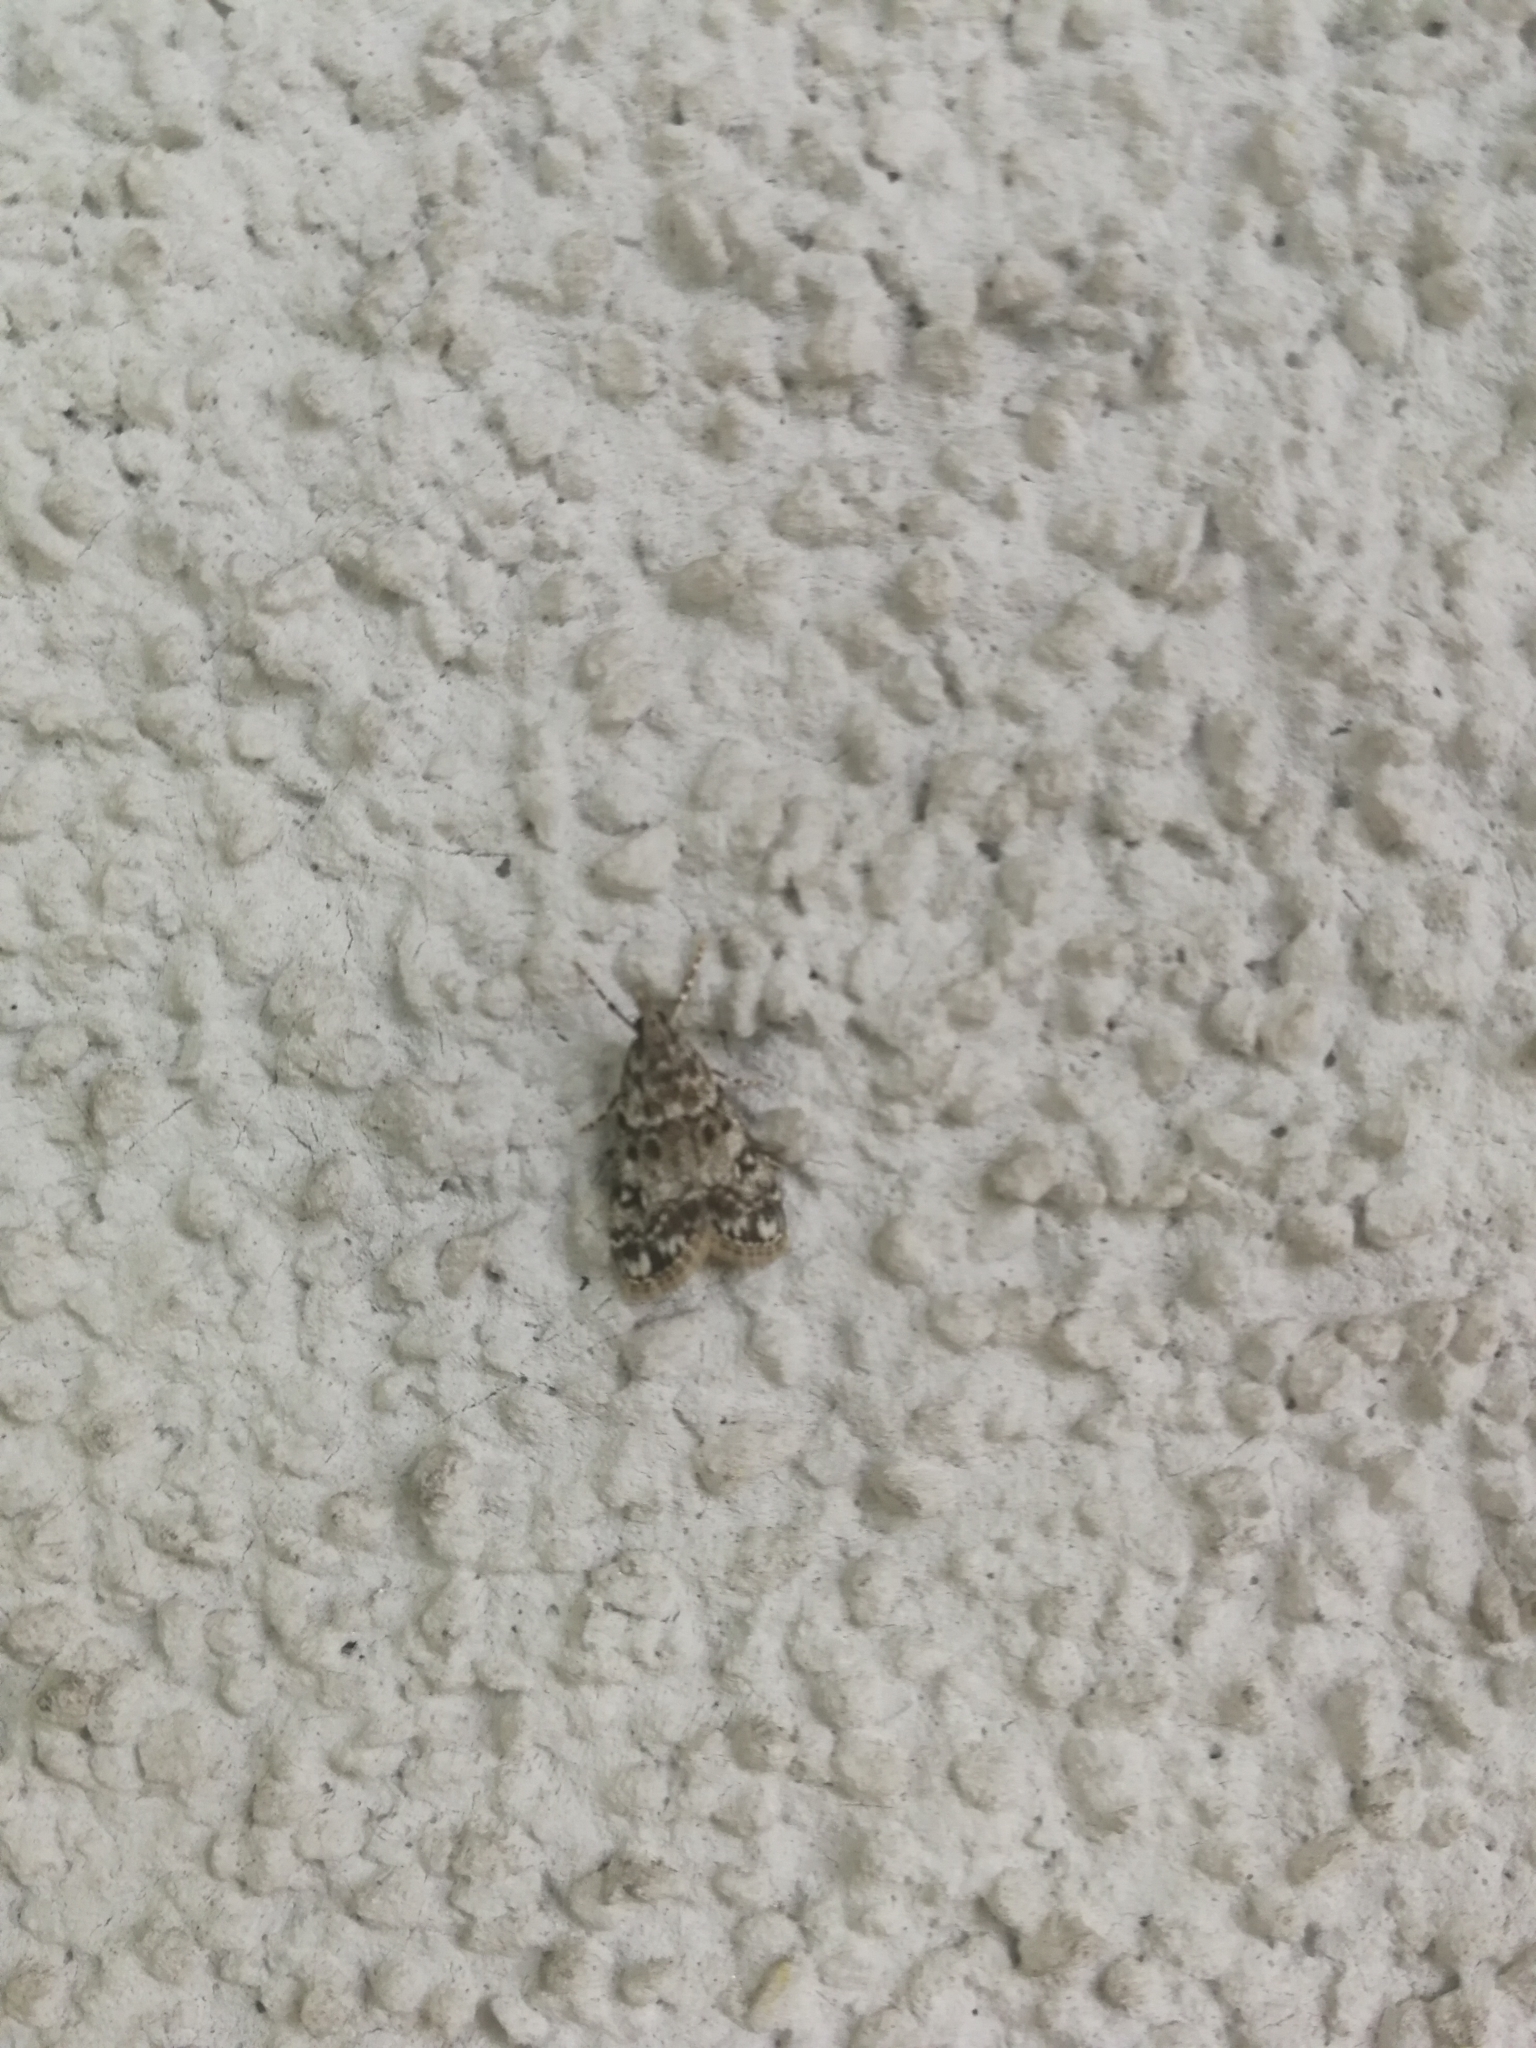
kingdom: Animalia
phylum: Arthropoda
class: Insecta
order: Lepidoptera
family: Crambidae
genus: Eudonia
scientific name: Eudonia lacustrata
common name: Little grey
